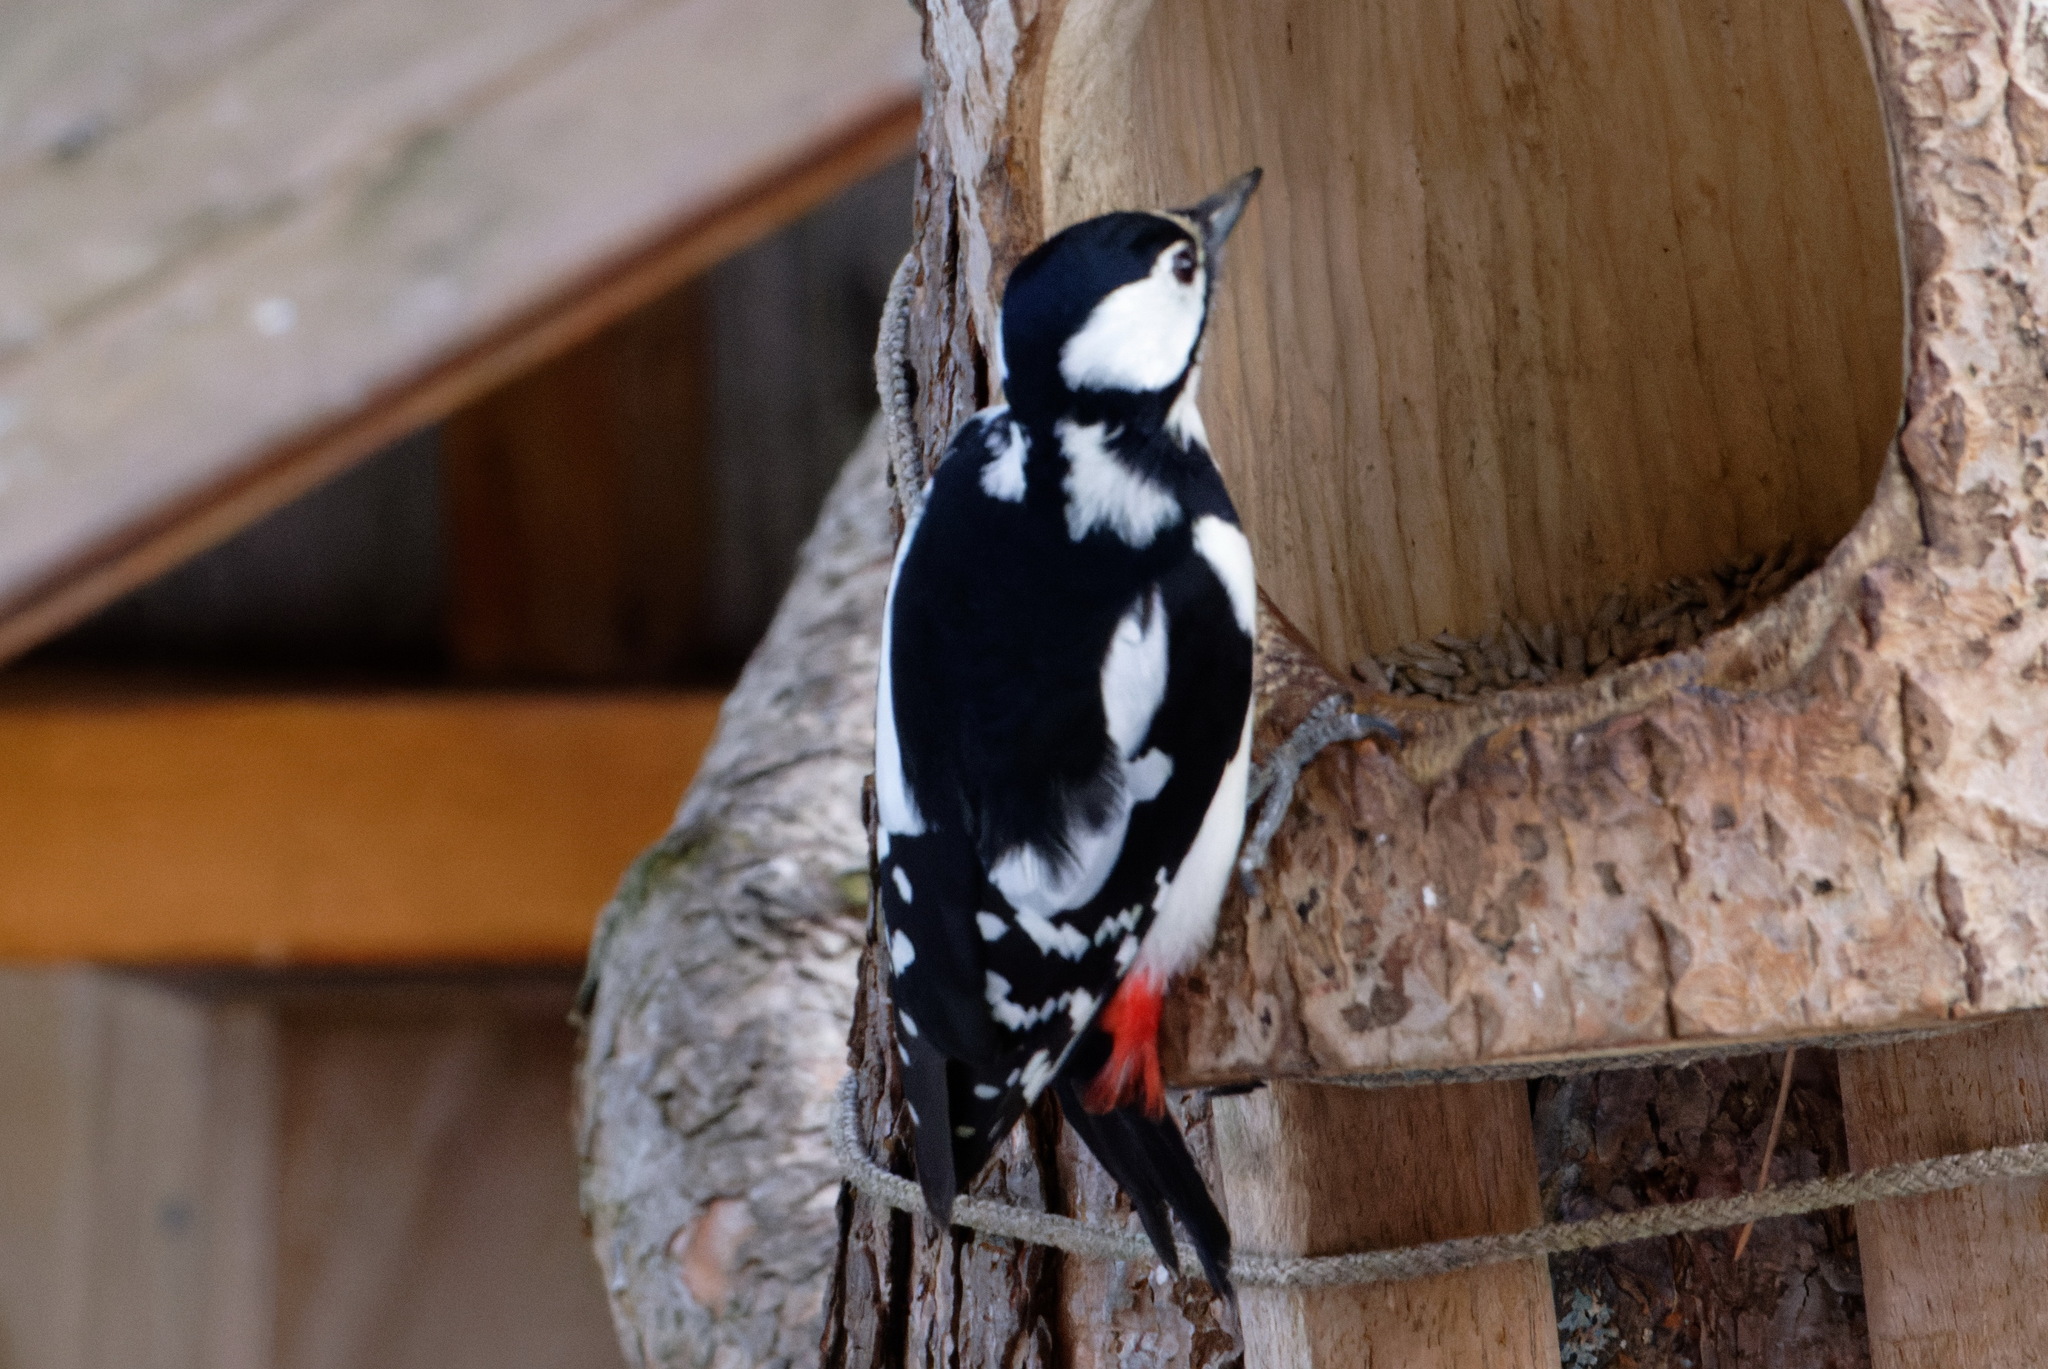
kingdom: Animalia
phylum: Chordata
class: Aves
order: Piciformes
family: Picidae
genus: Dendrocopos
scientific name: Dendrocopos major
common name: Great spotted woodpecker
